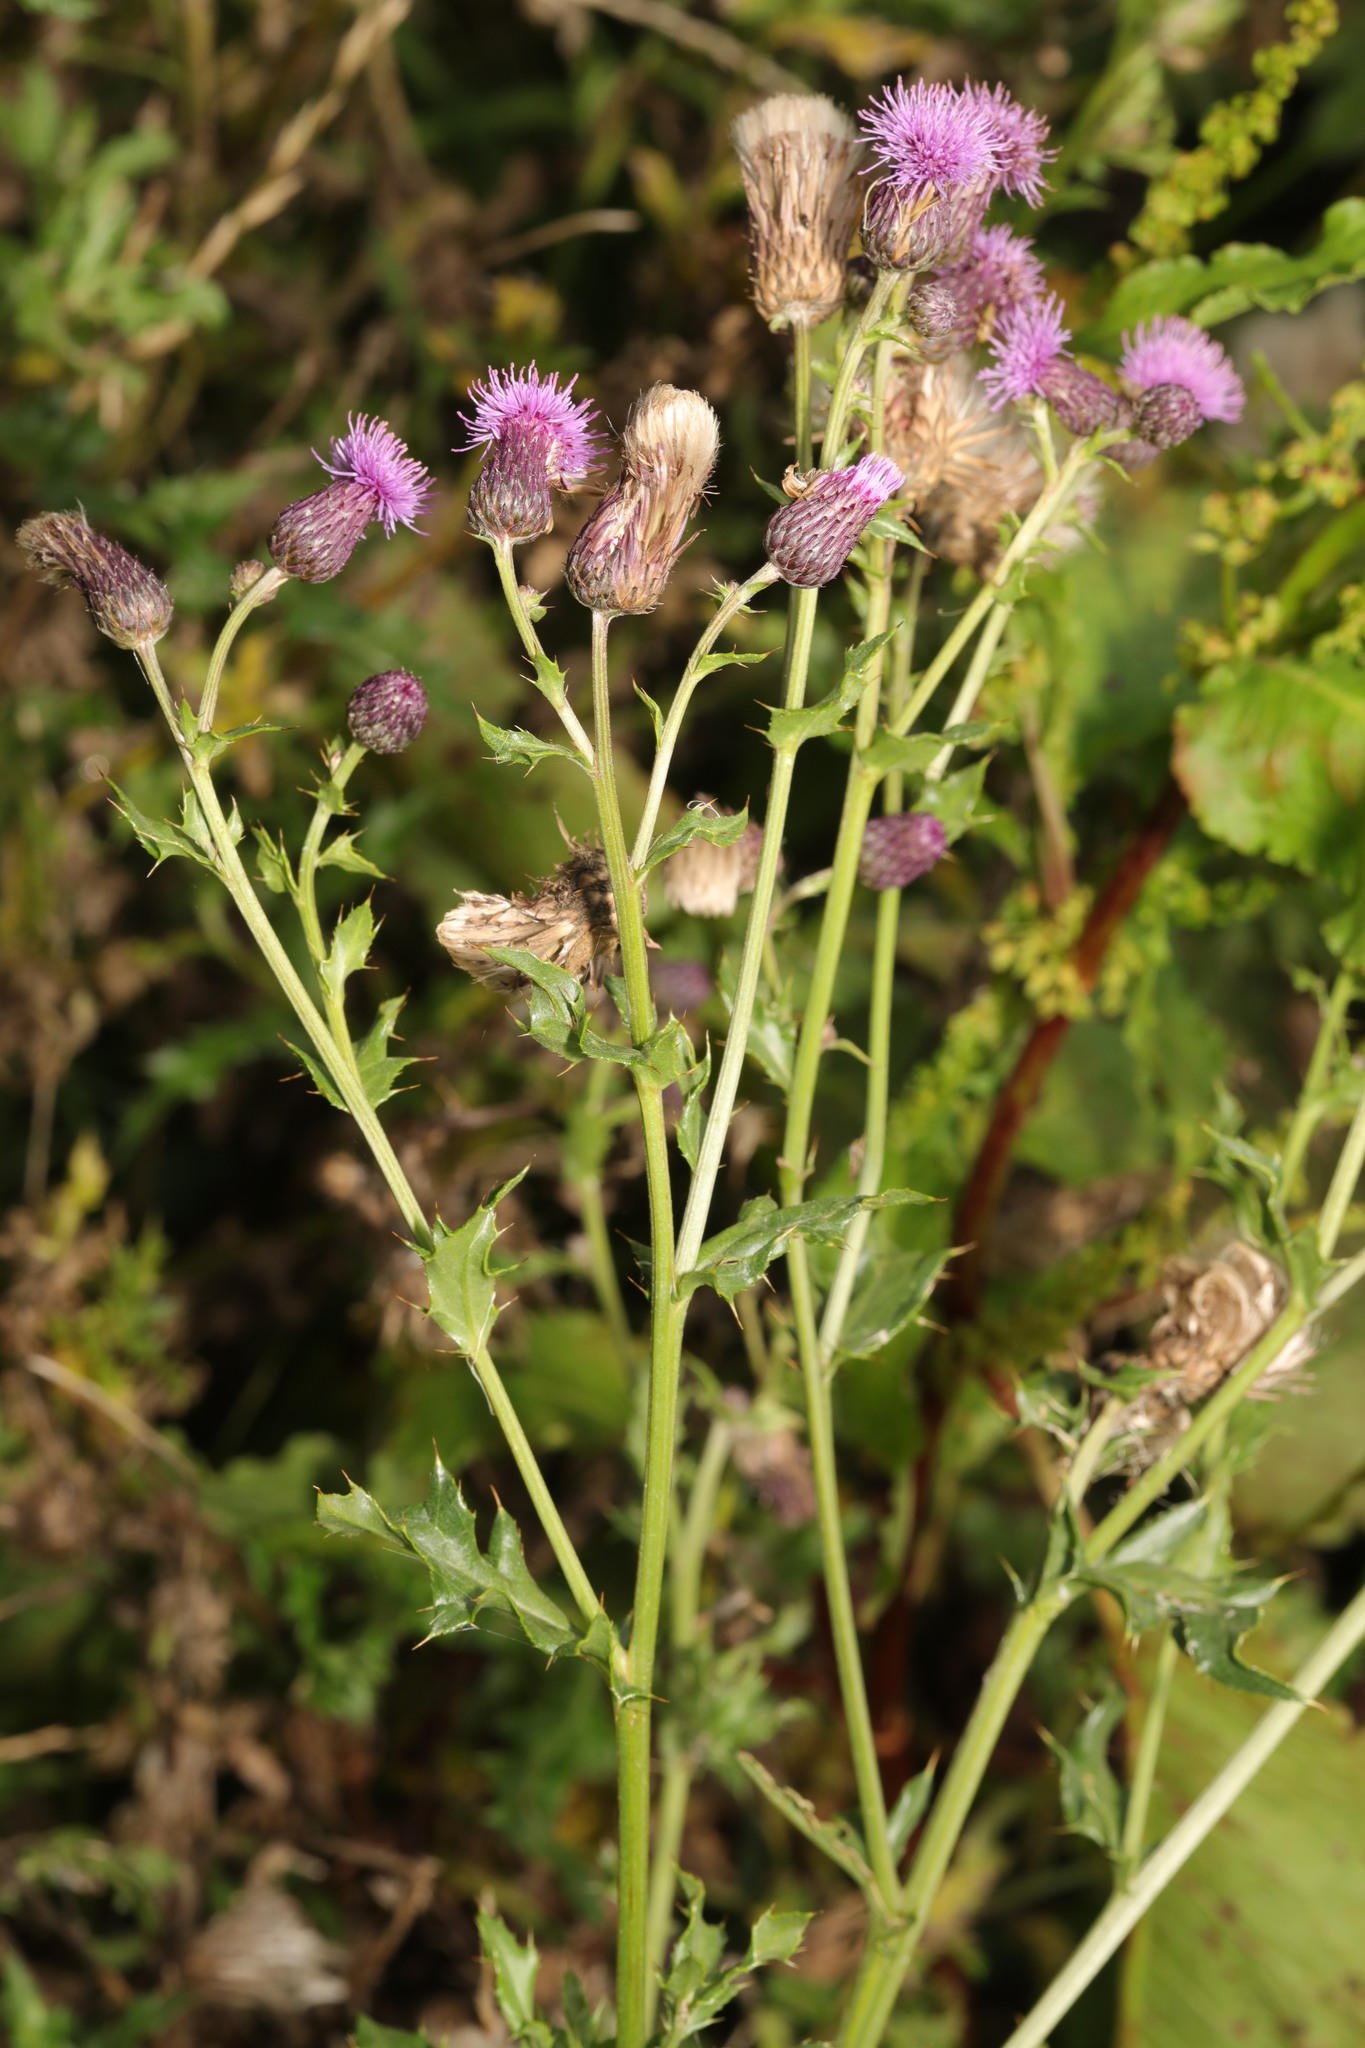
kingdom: Plantae
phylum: Tracheophyta
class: Magnoliopsida
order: Asterales
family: Asteraceae
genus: Cirsium
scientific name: Cirsium arvense
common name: Creeping thistle
